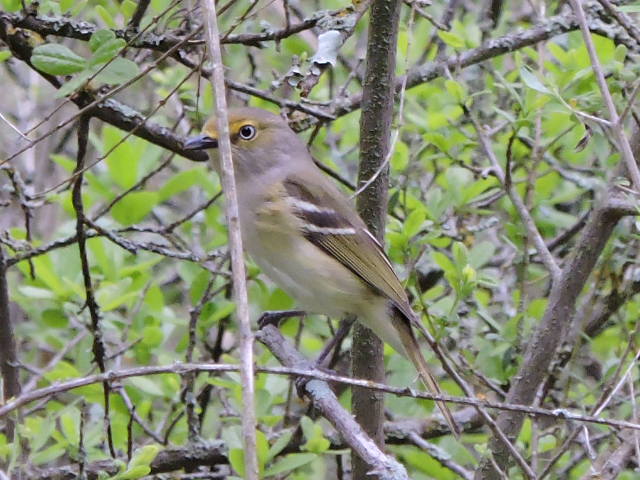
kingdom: Animalia
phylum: Chordata
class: Aves
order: Passeriformes
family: Vireonidae
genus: Vireo
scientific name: Vireo griseus
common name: White-eyed vireo
